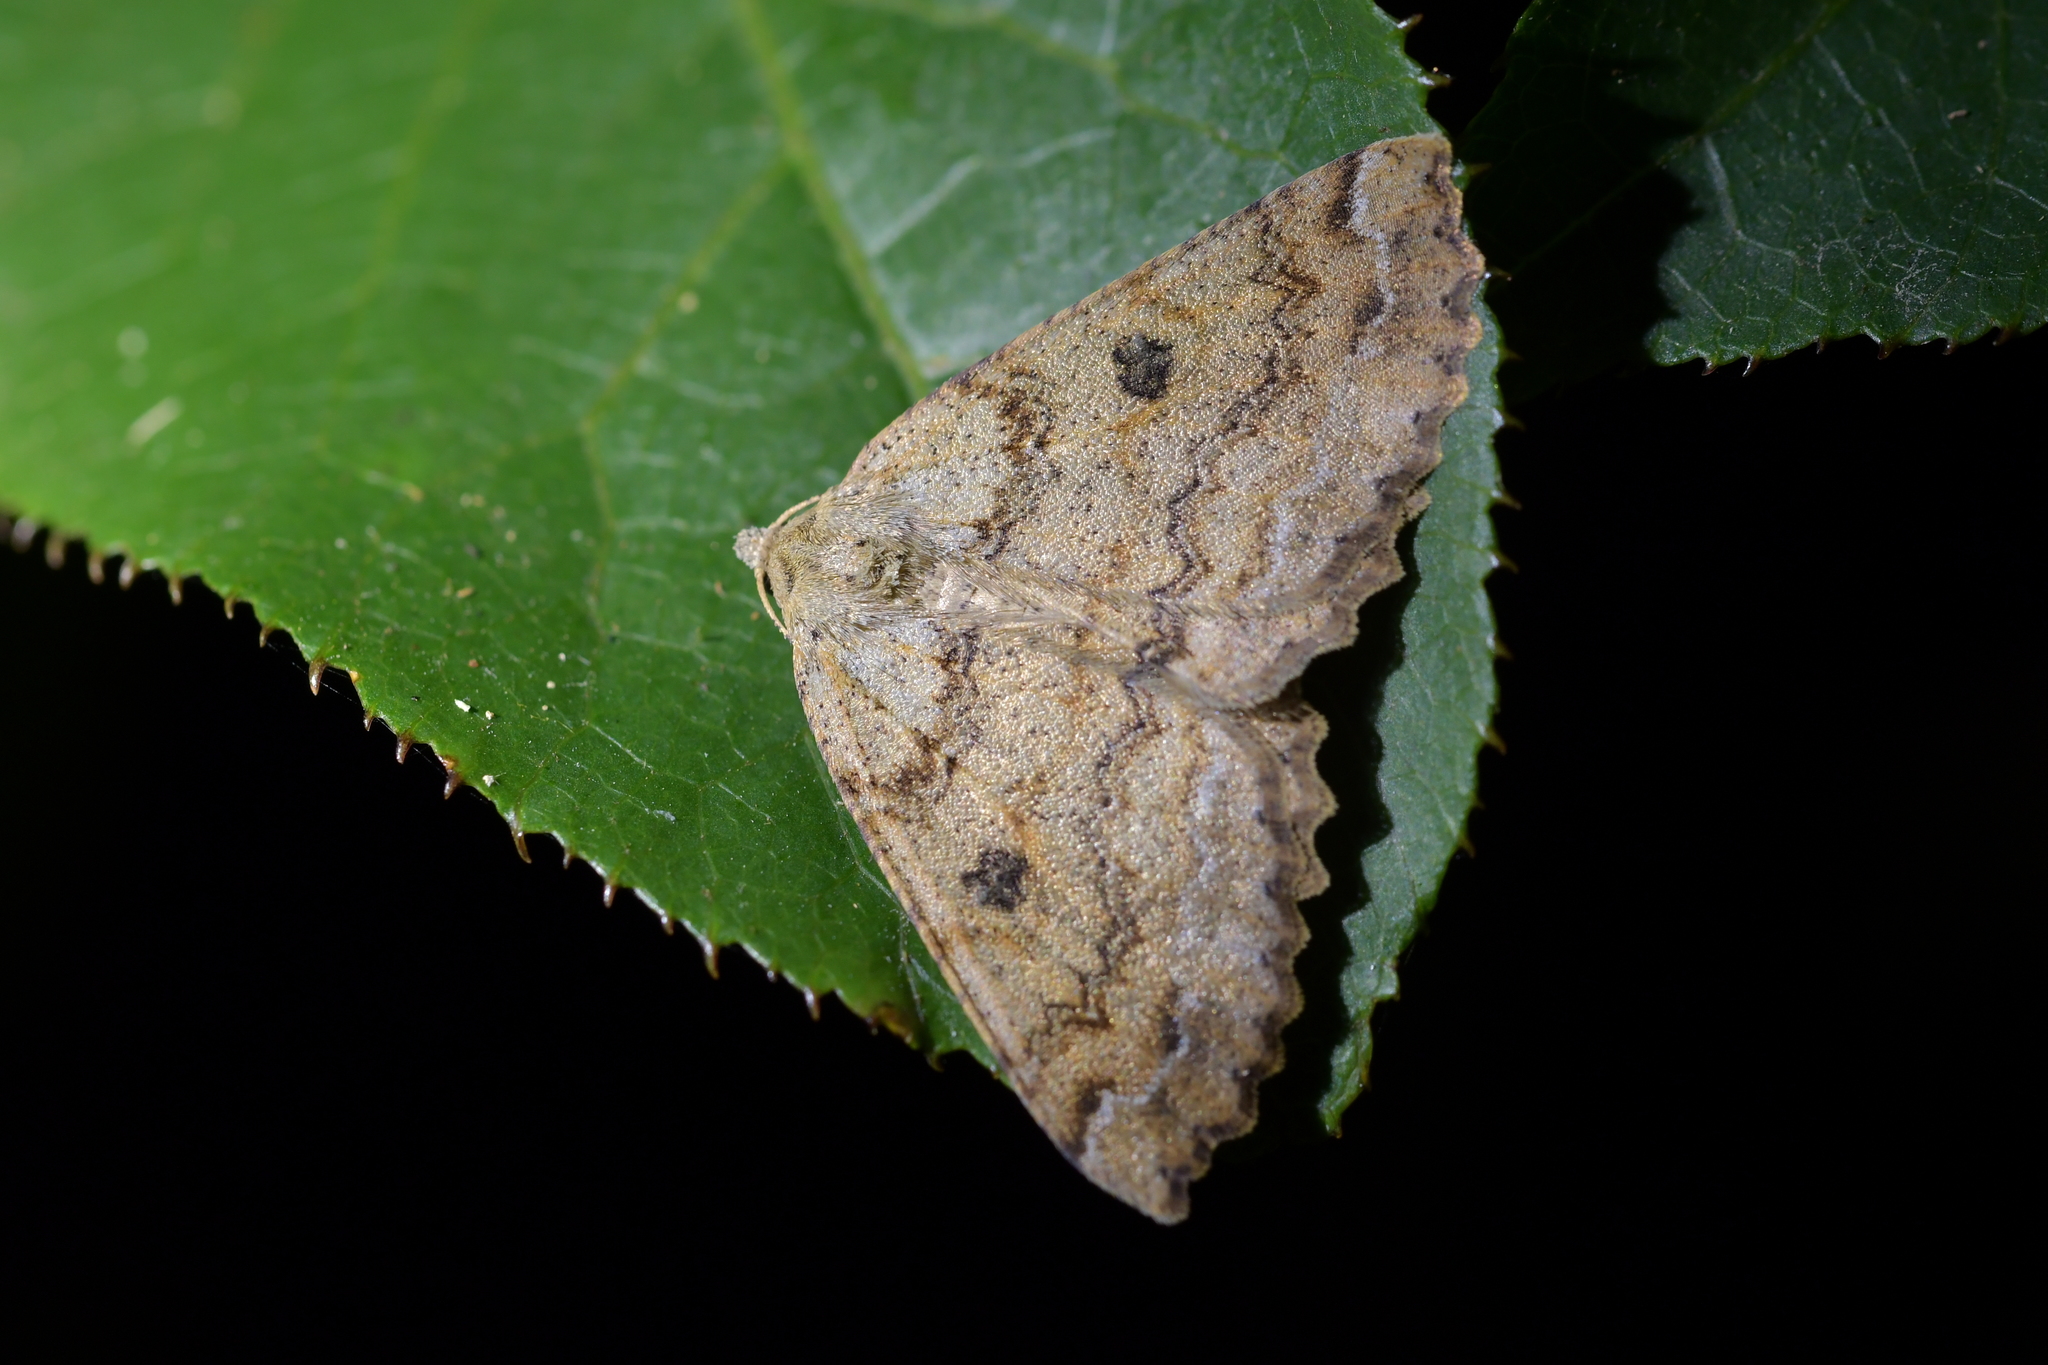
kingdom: Animalia
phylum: Arthropoda
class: Insecta
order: Lepidoptera
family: Geometridae
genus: Cleora
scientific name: Cleora scriptaria
